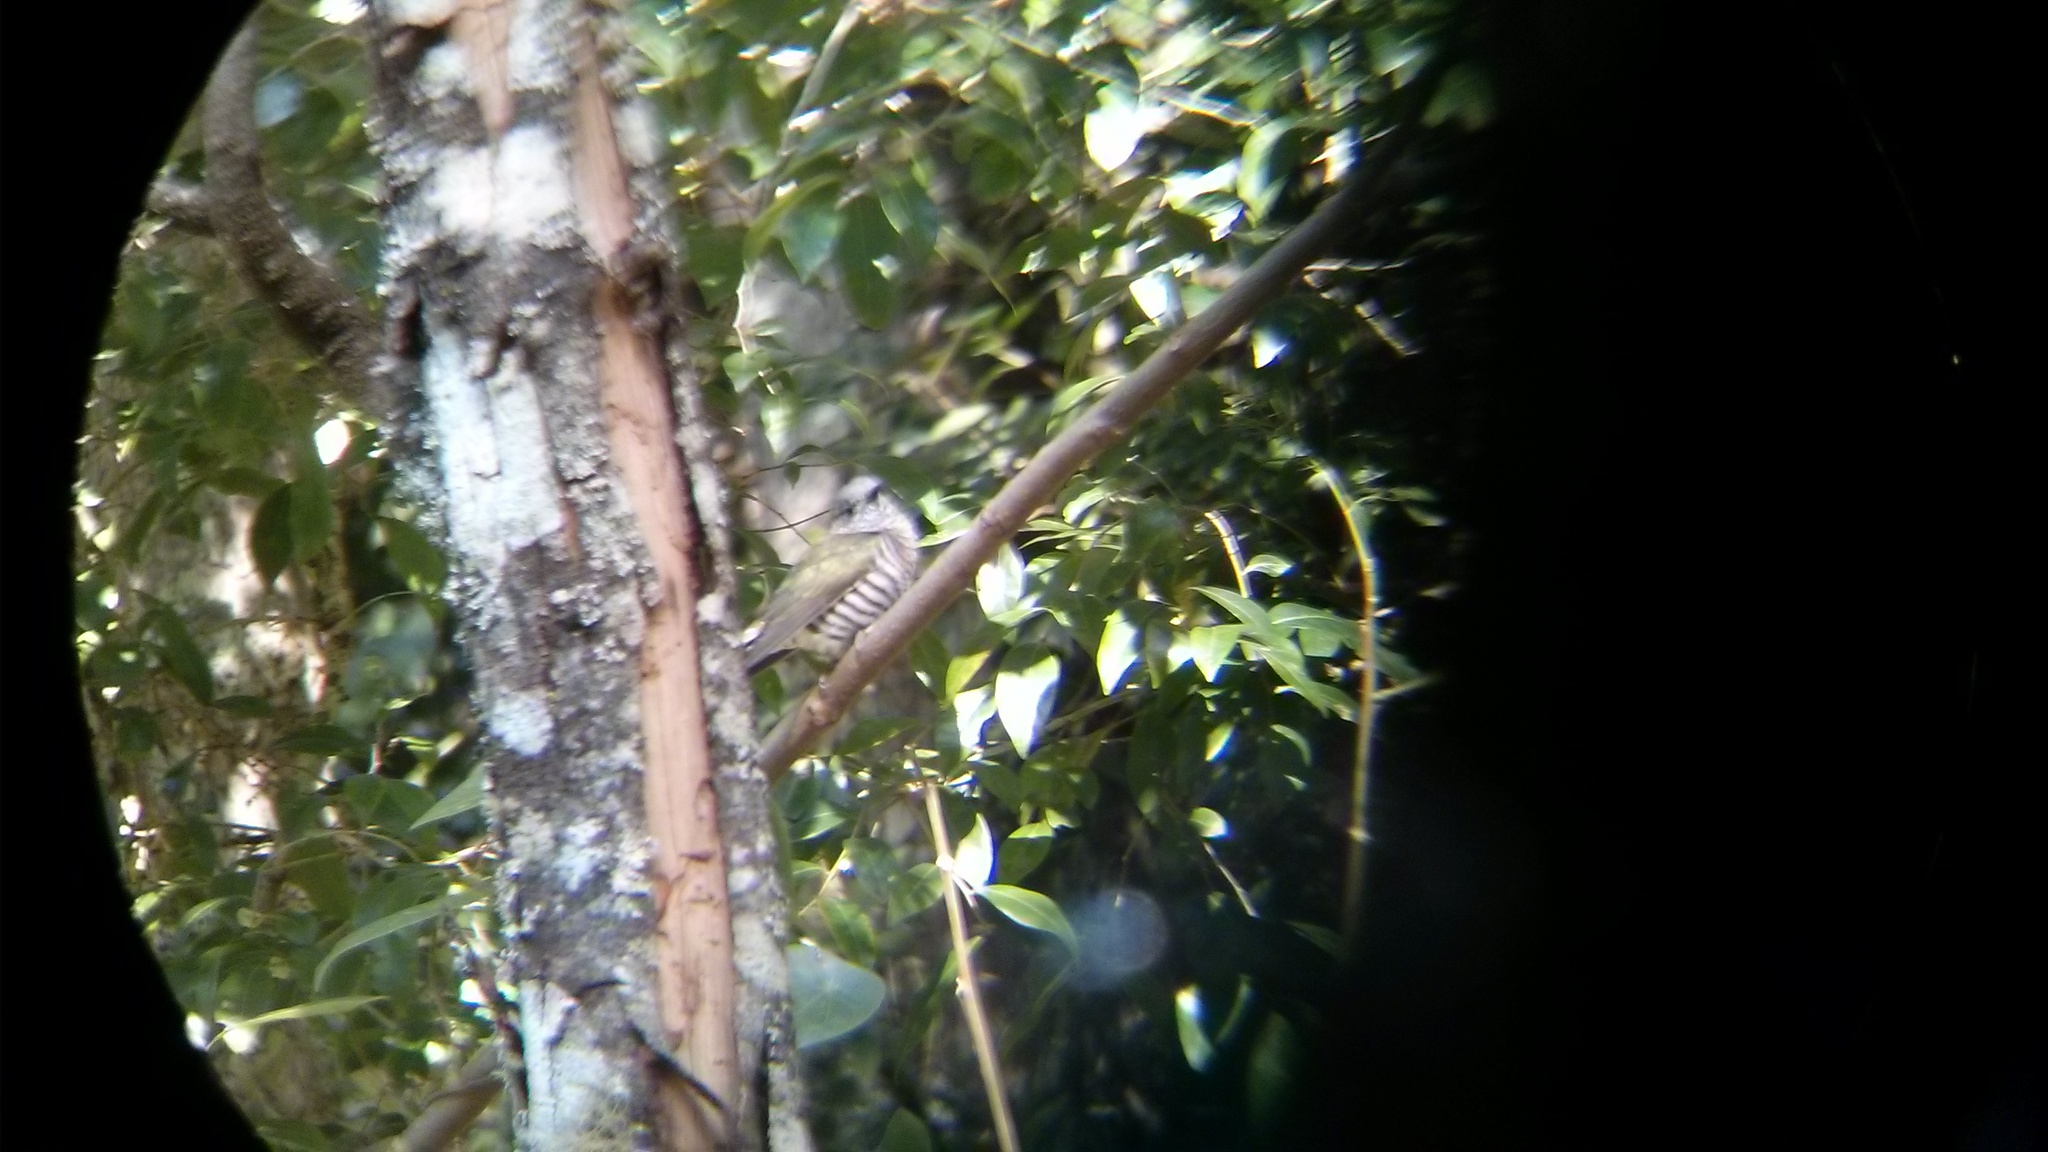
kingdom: Animalia
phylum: Chordata
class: Aves
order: Cuculiformes
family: Cuculidae
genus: Chrysococcyx
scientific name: Chrysococcyx lucidus
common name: Shining bronze cuckoo
